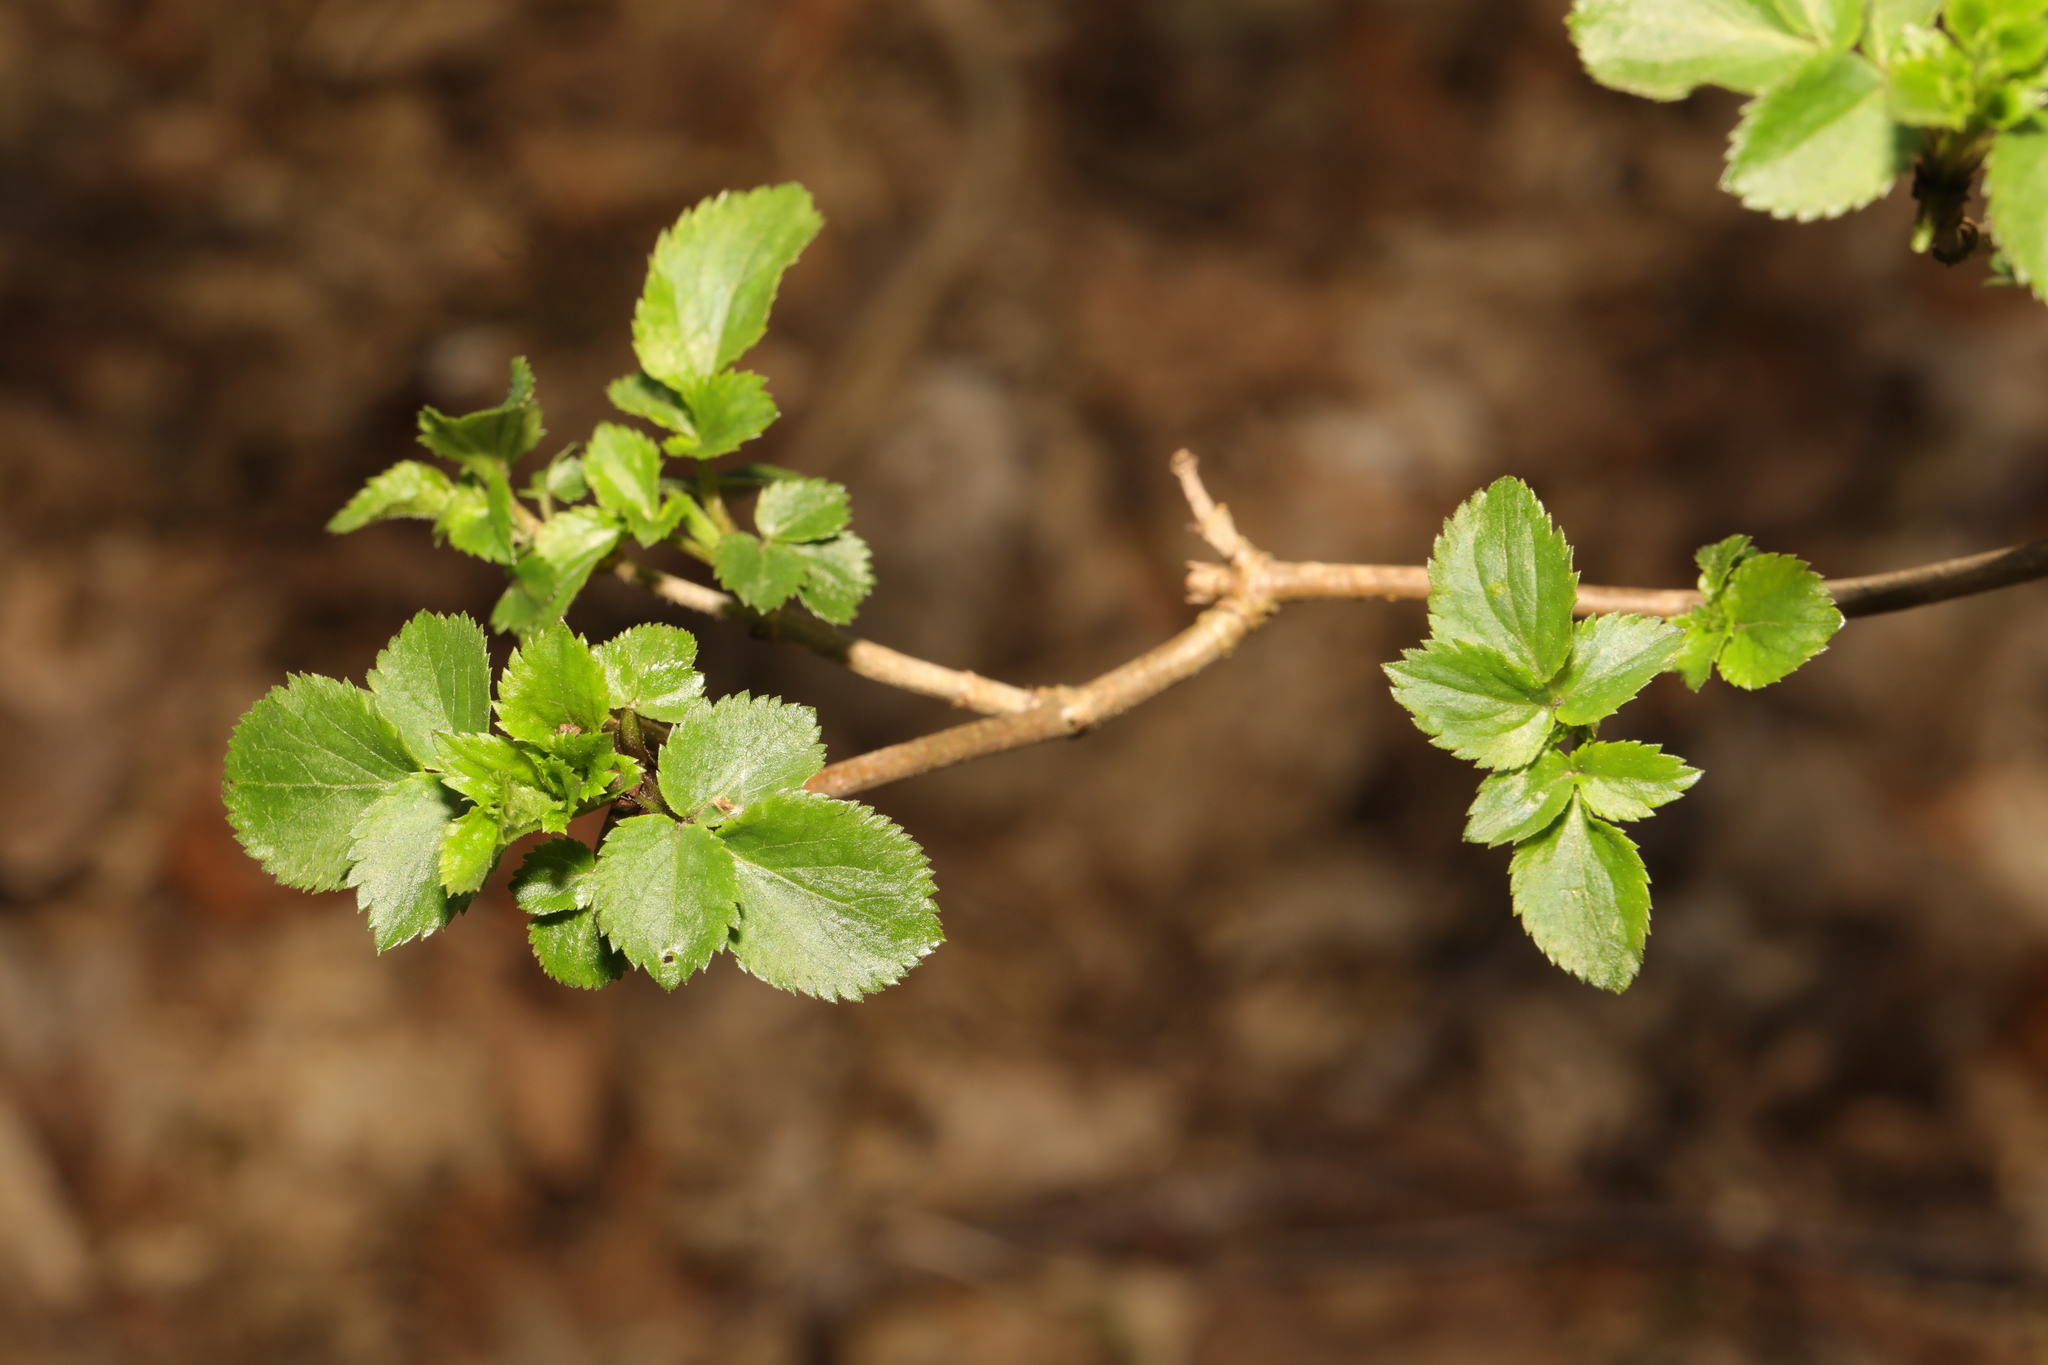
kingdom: Plantae
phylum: Tracheophyta
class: Magnoliopsida
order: Dipsacales
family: Viburnaceae
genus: Sambucus
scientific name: Sambucus nigra
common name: Elder
